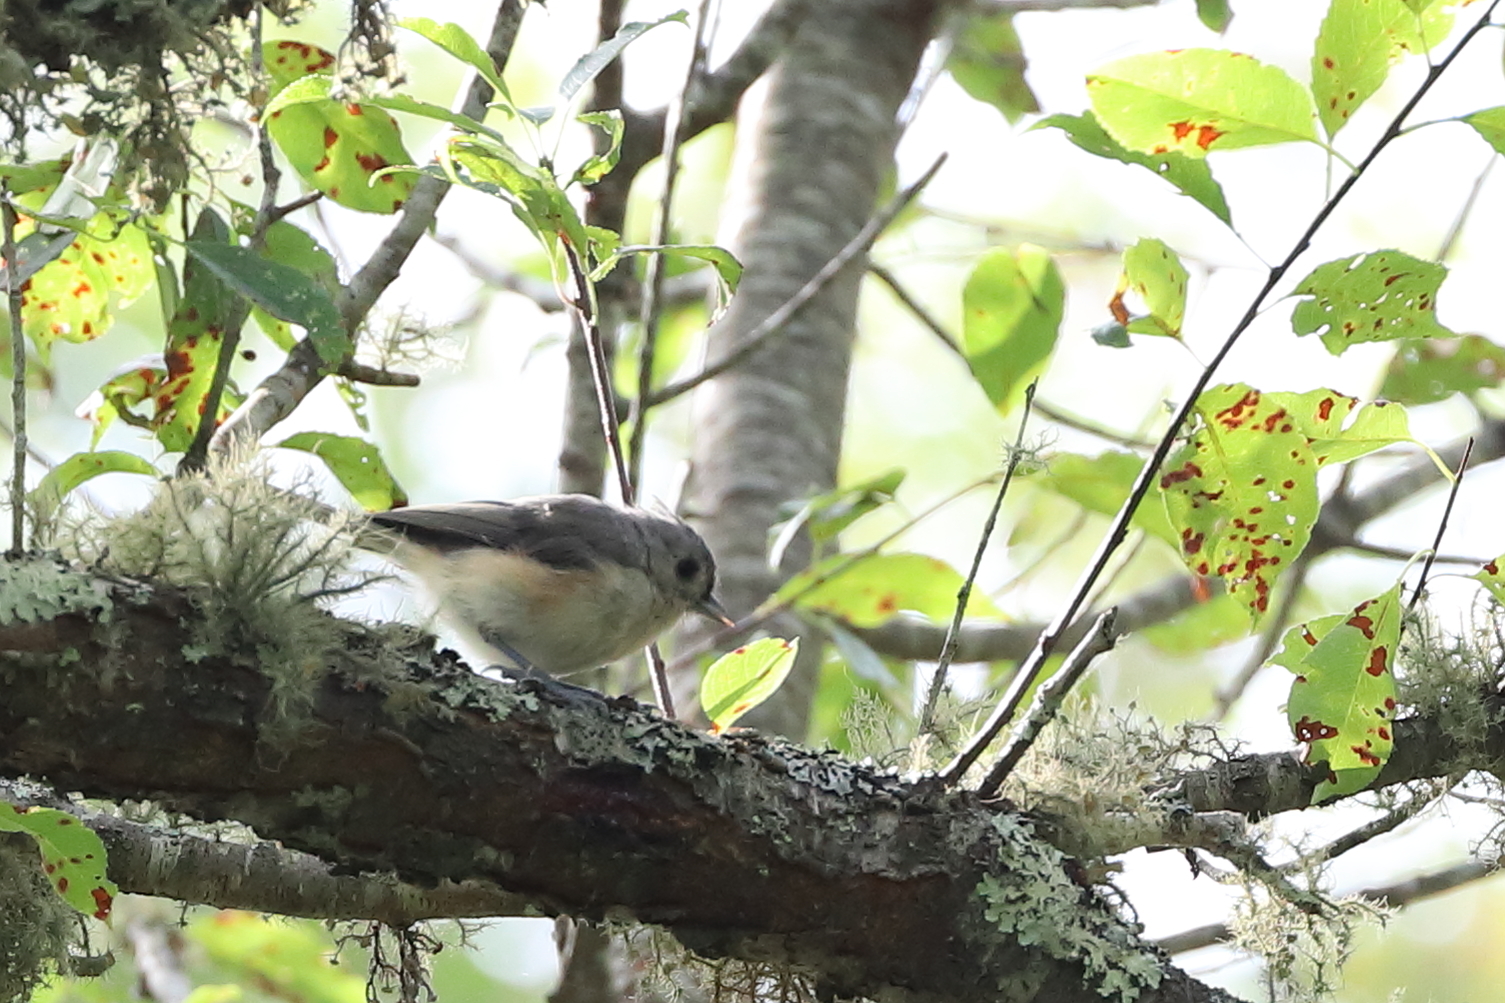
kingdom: Animalia
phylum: Chordata
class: Aves
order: Passeriformes
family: Paridae
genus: Baeolophus
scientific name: Baeolophus bicolor
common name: Tufted titmouse
